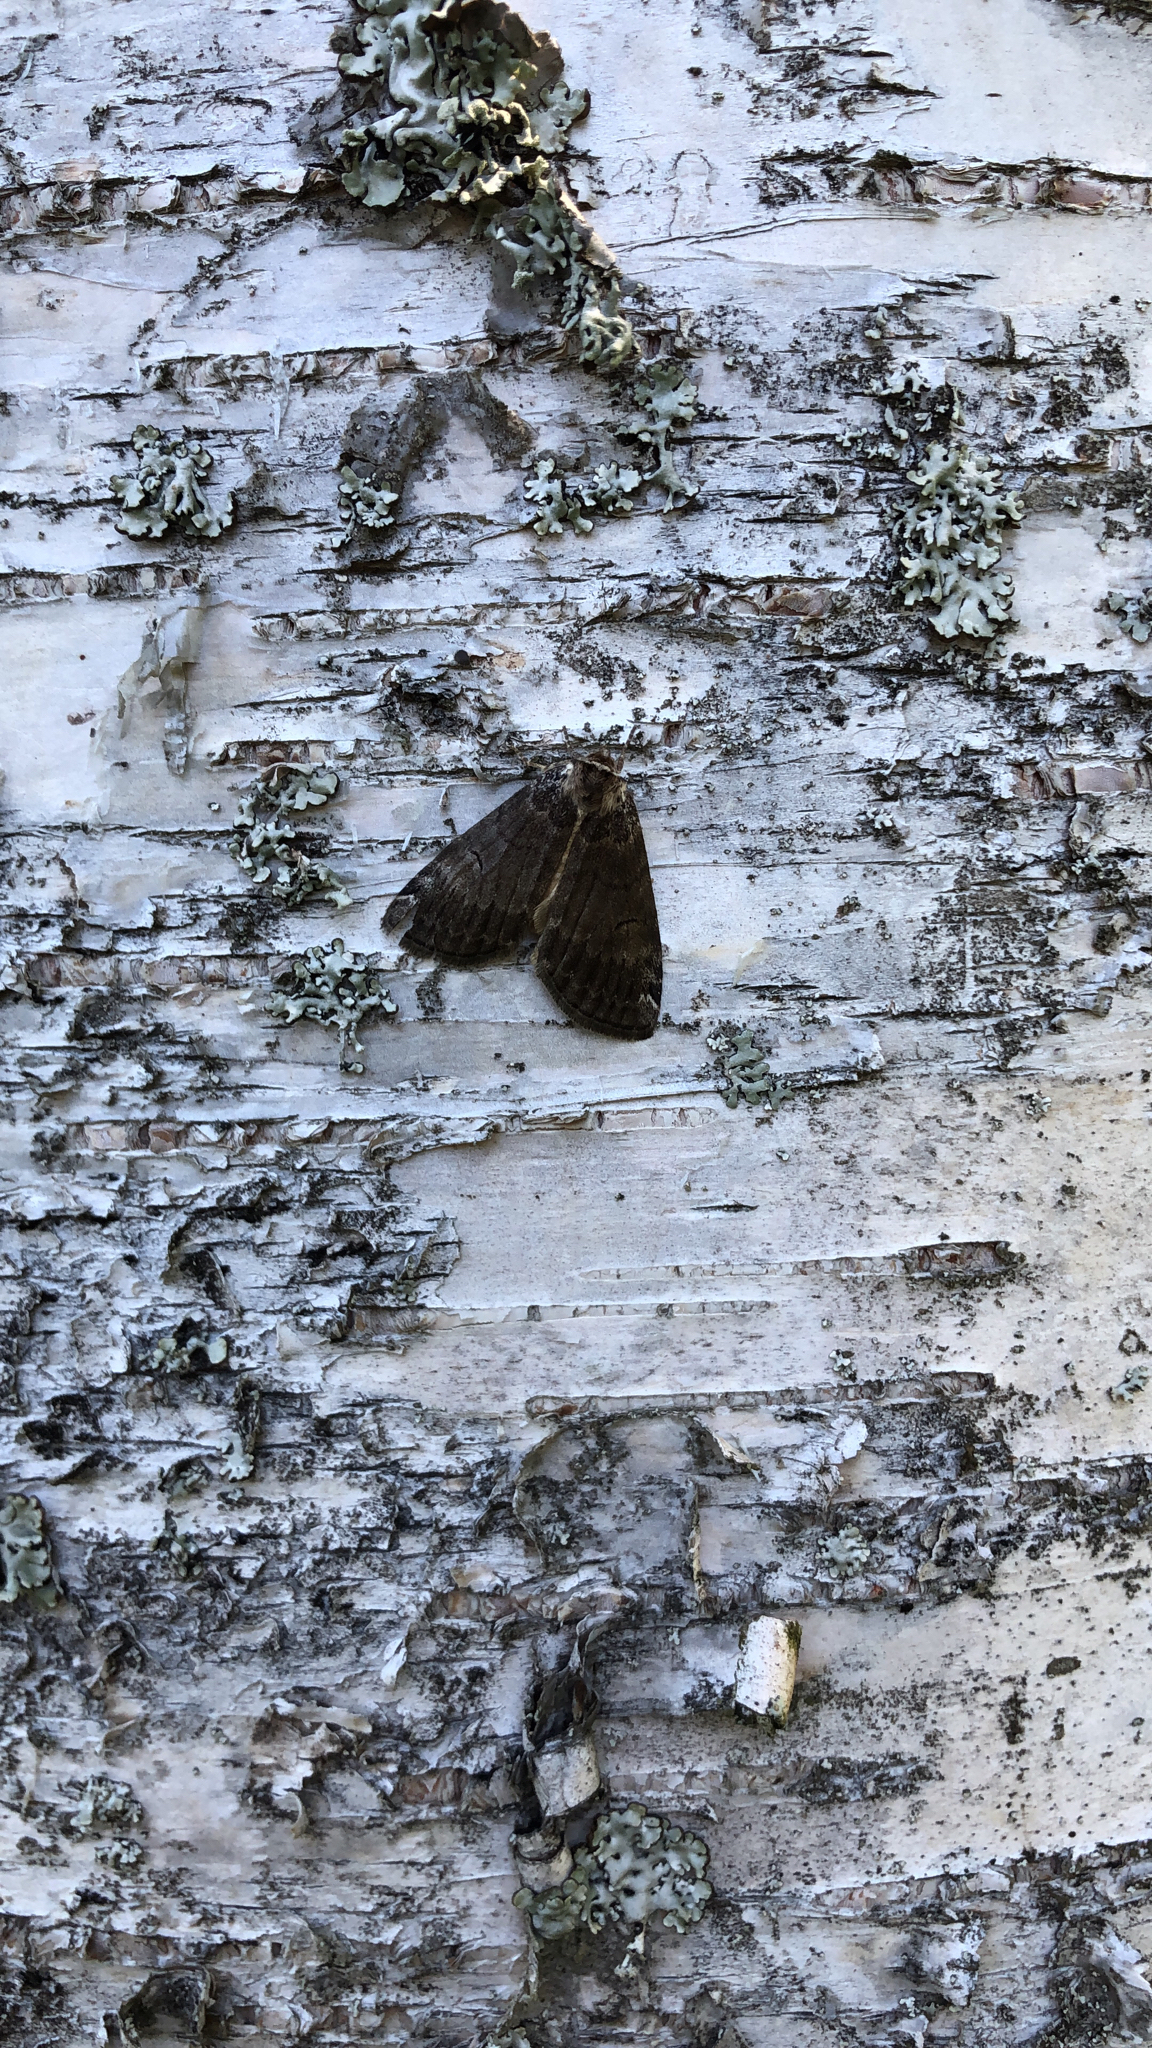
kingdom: Animalia
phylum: Arthropoda
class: Insecta
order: Lepidoptera
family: Drepanidae
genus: Tetheella
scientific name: Tetheella fluctuosa
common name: Satin lutestring
